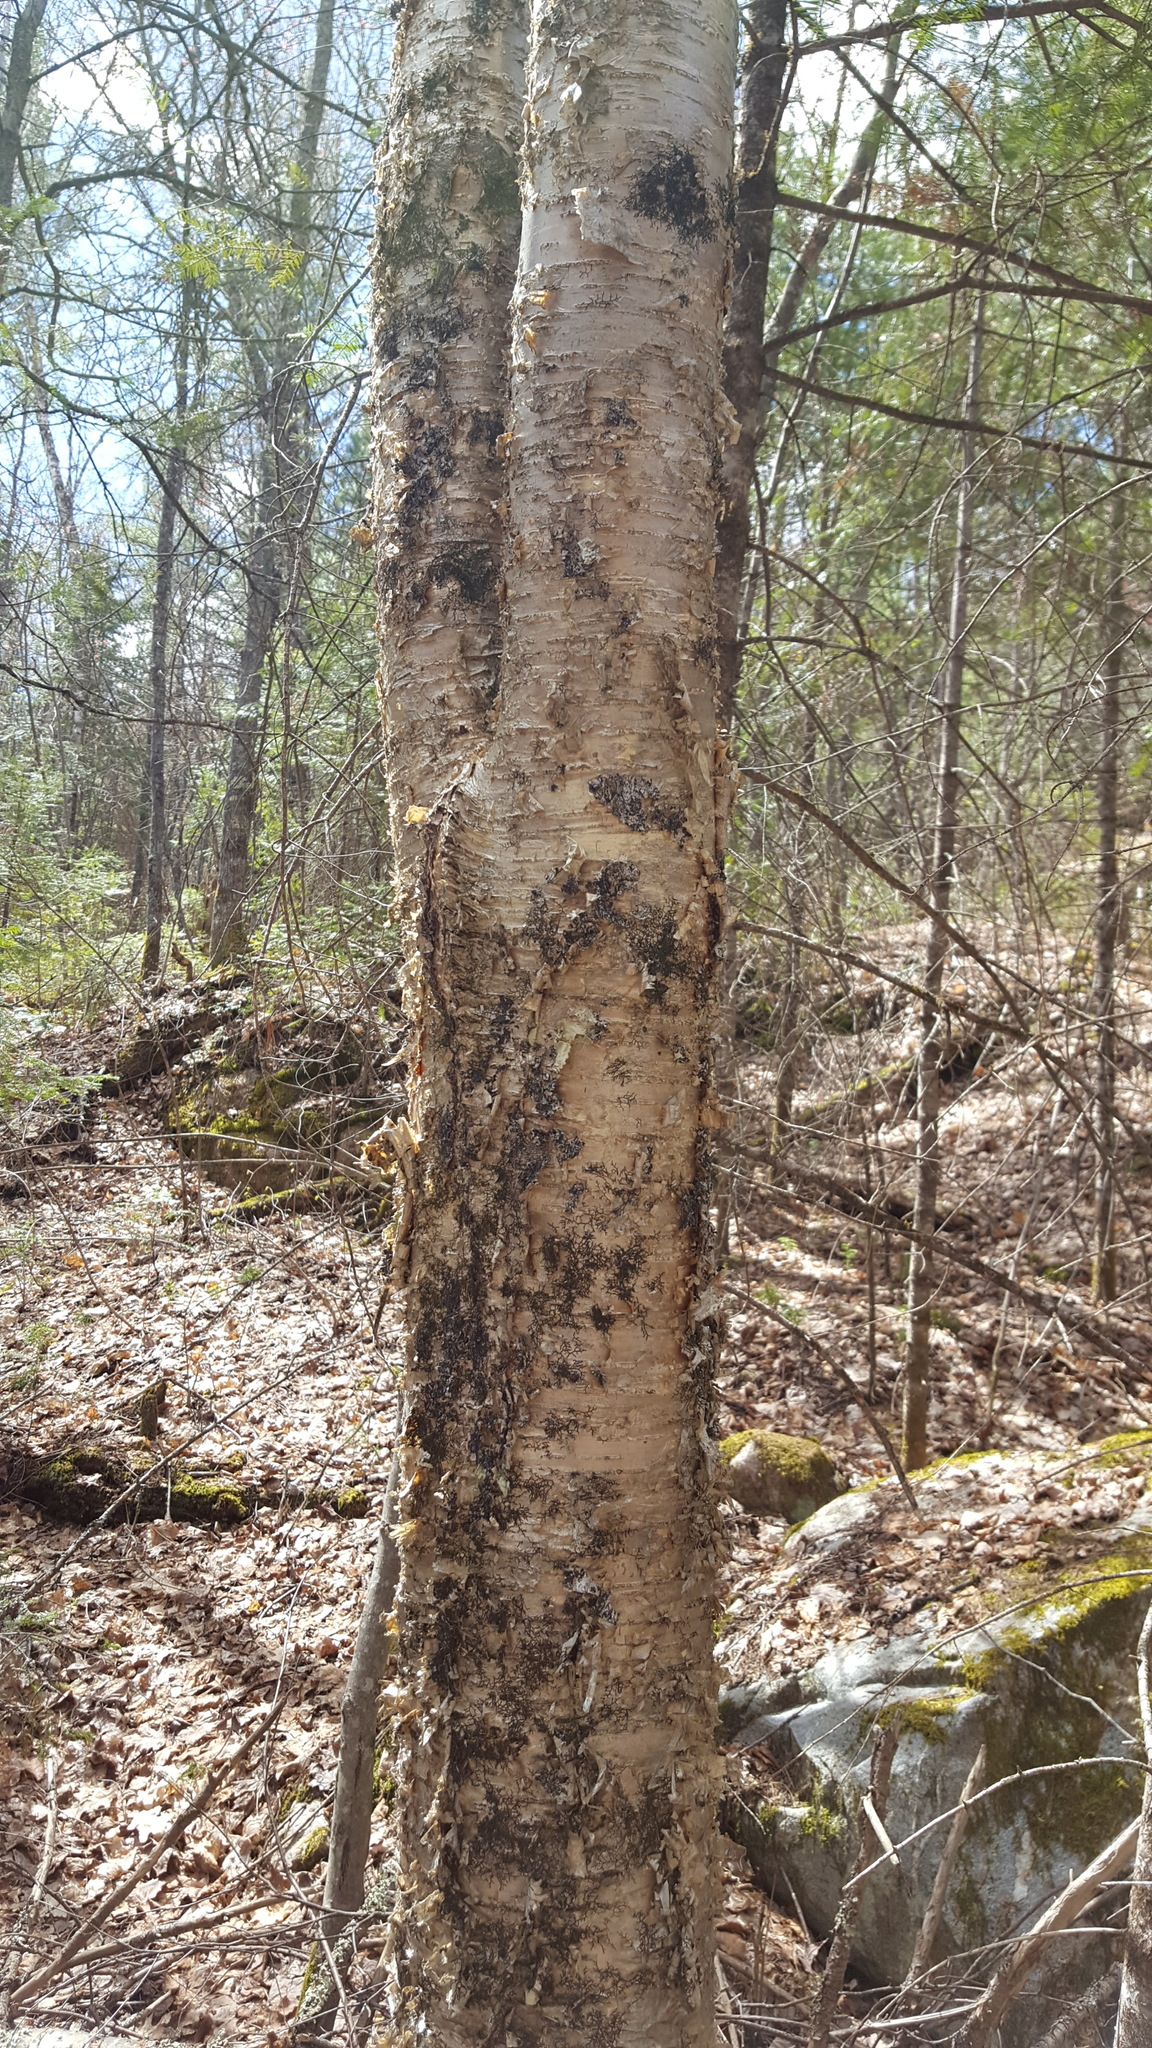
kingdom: Plantae
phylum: Tracheophyta
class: Magnoliopsida
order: Fagales
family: Betulaceae
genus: Betula
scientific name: Betula alleghaniensis
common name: Yellow birch
